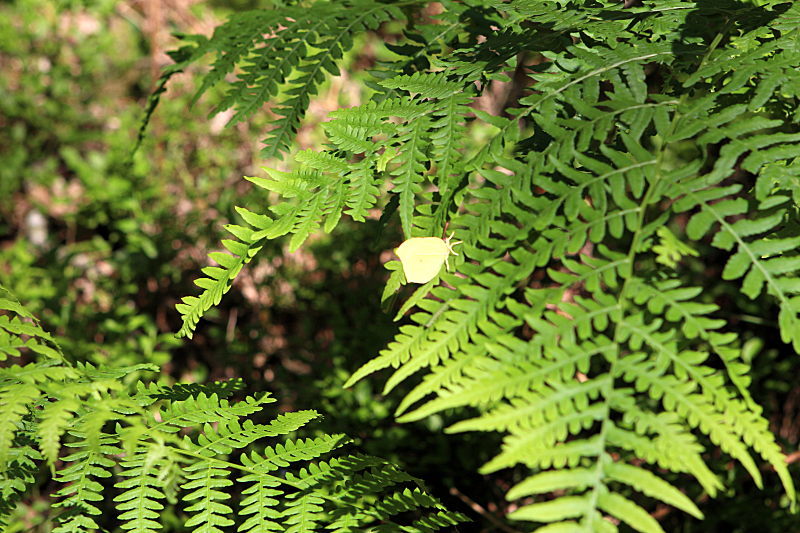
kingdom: Animalia
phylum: Arthropoda
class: Insecta
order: Lepidoptera
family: Pieridae
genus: Gonepteryx
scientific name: Gonepteryx rhamni
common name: Brimstone
